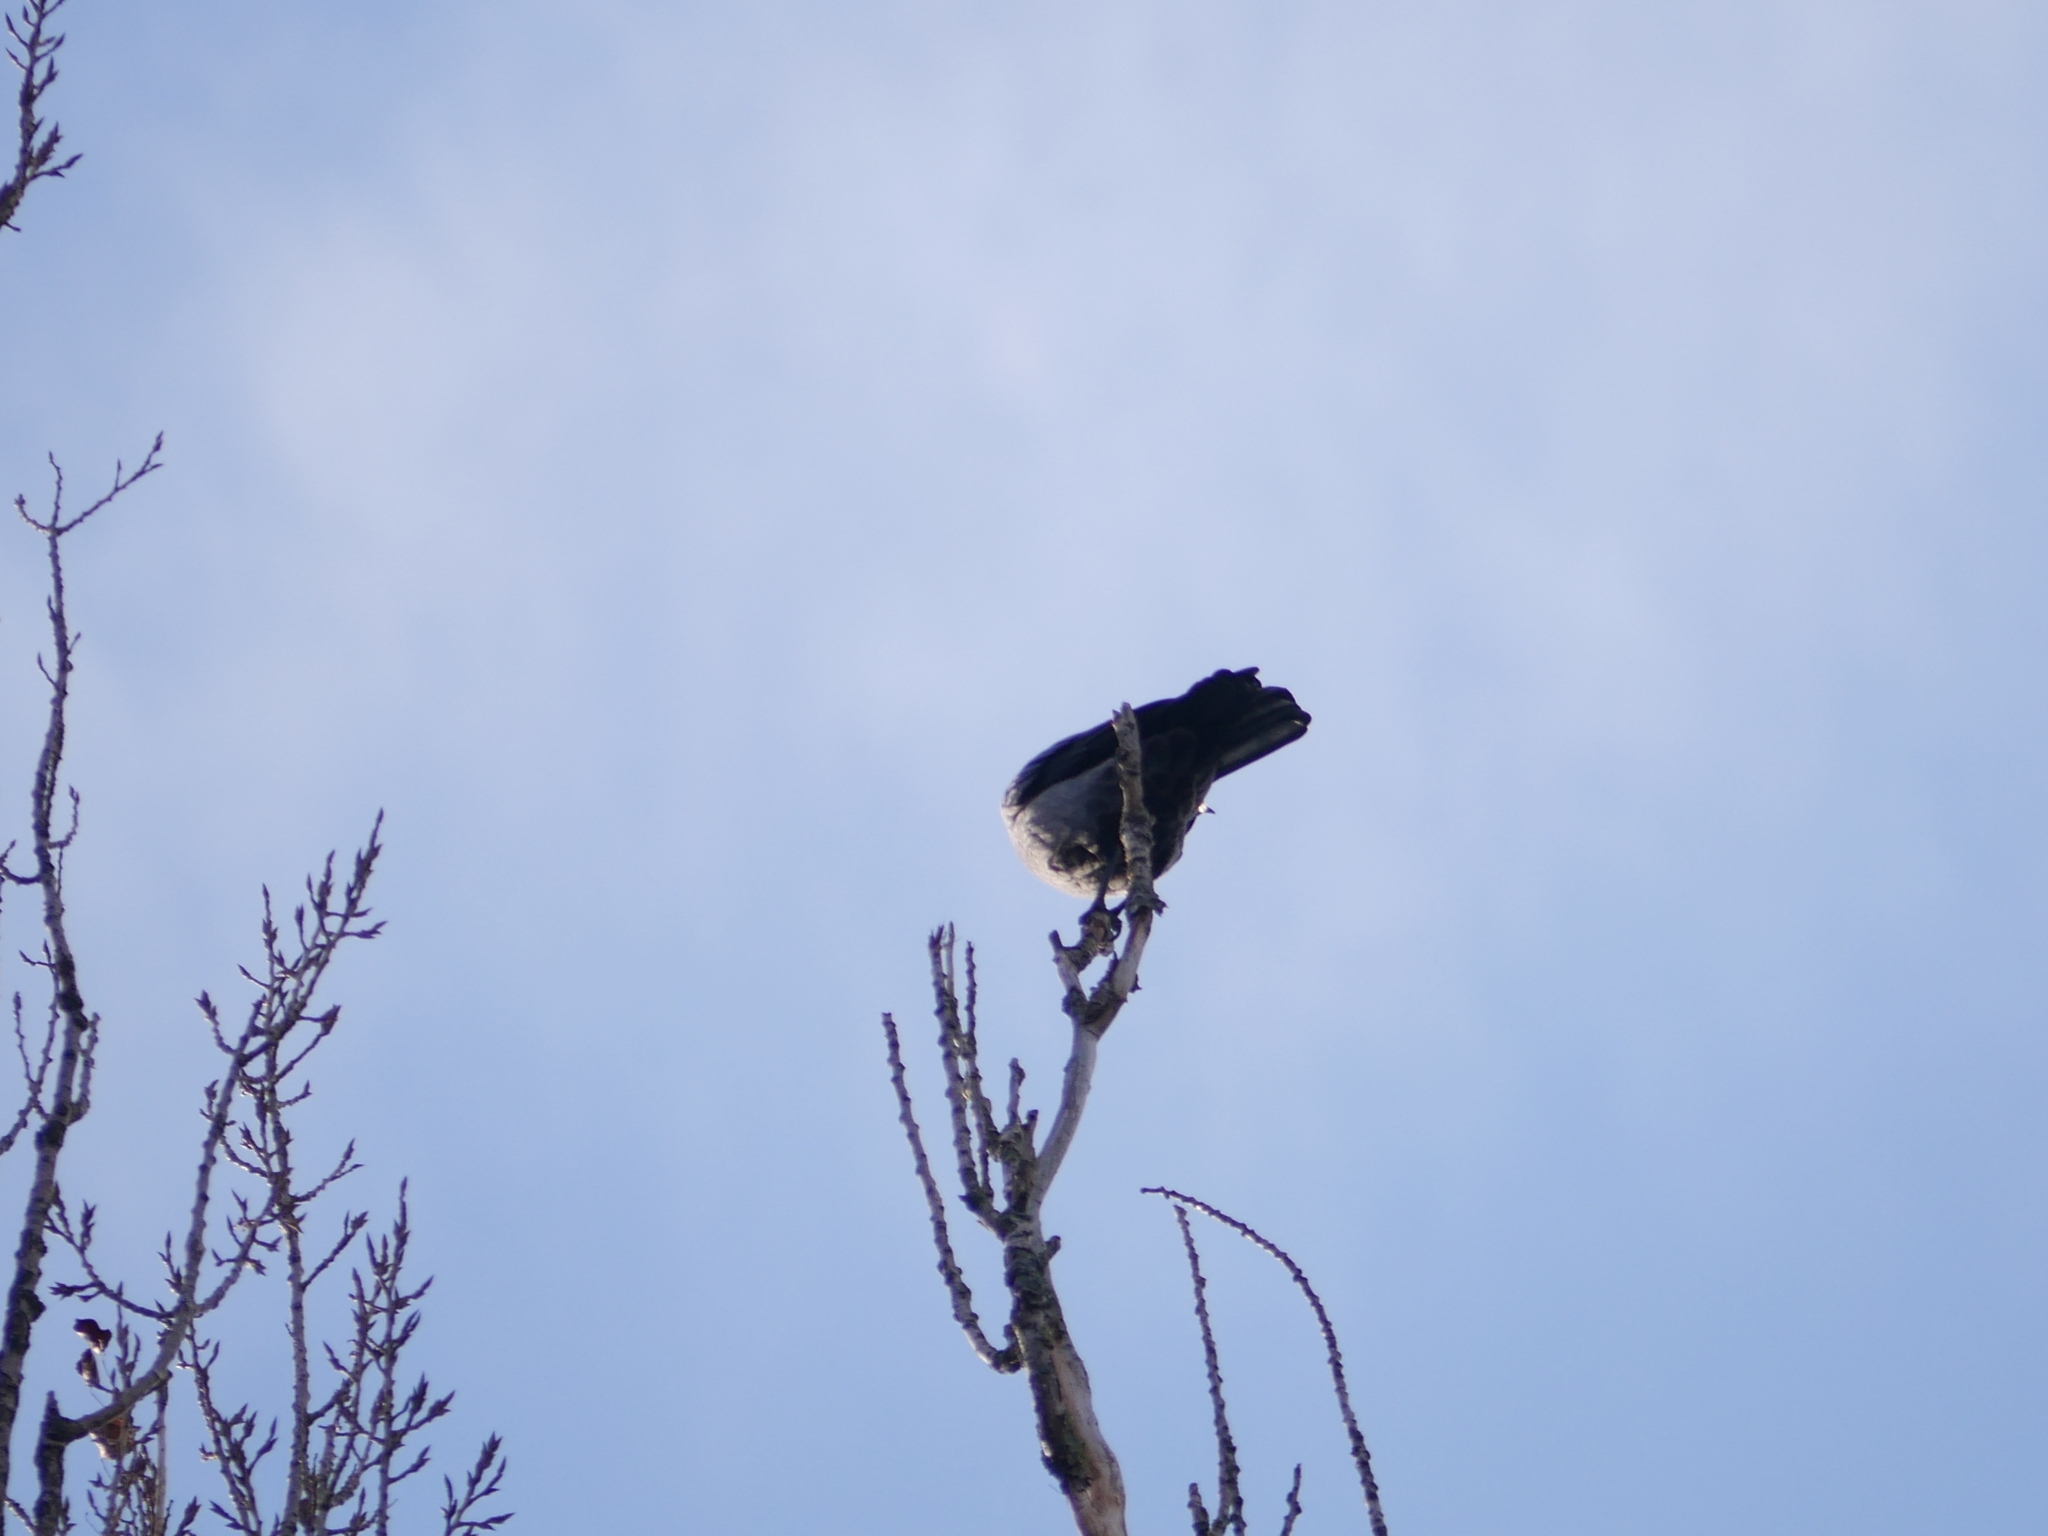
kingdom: Animalia
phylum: Chordata
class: Aves
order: Passeriformes
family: Corvidae
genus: Corvus
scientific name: Corvus
